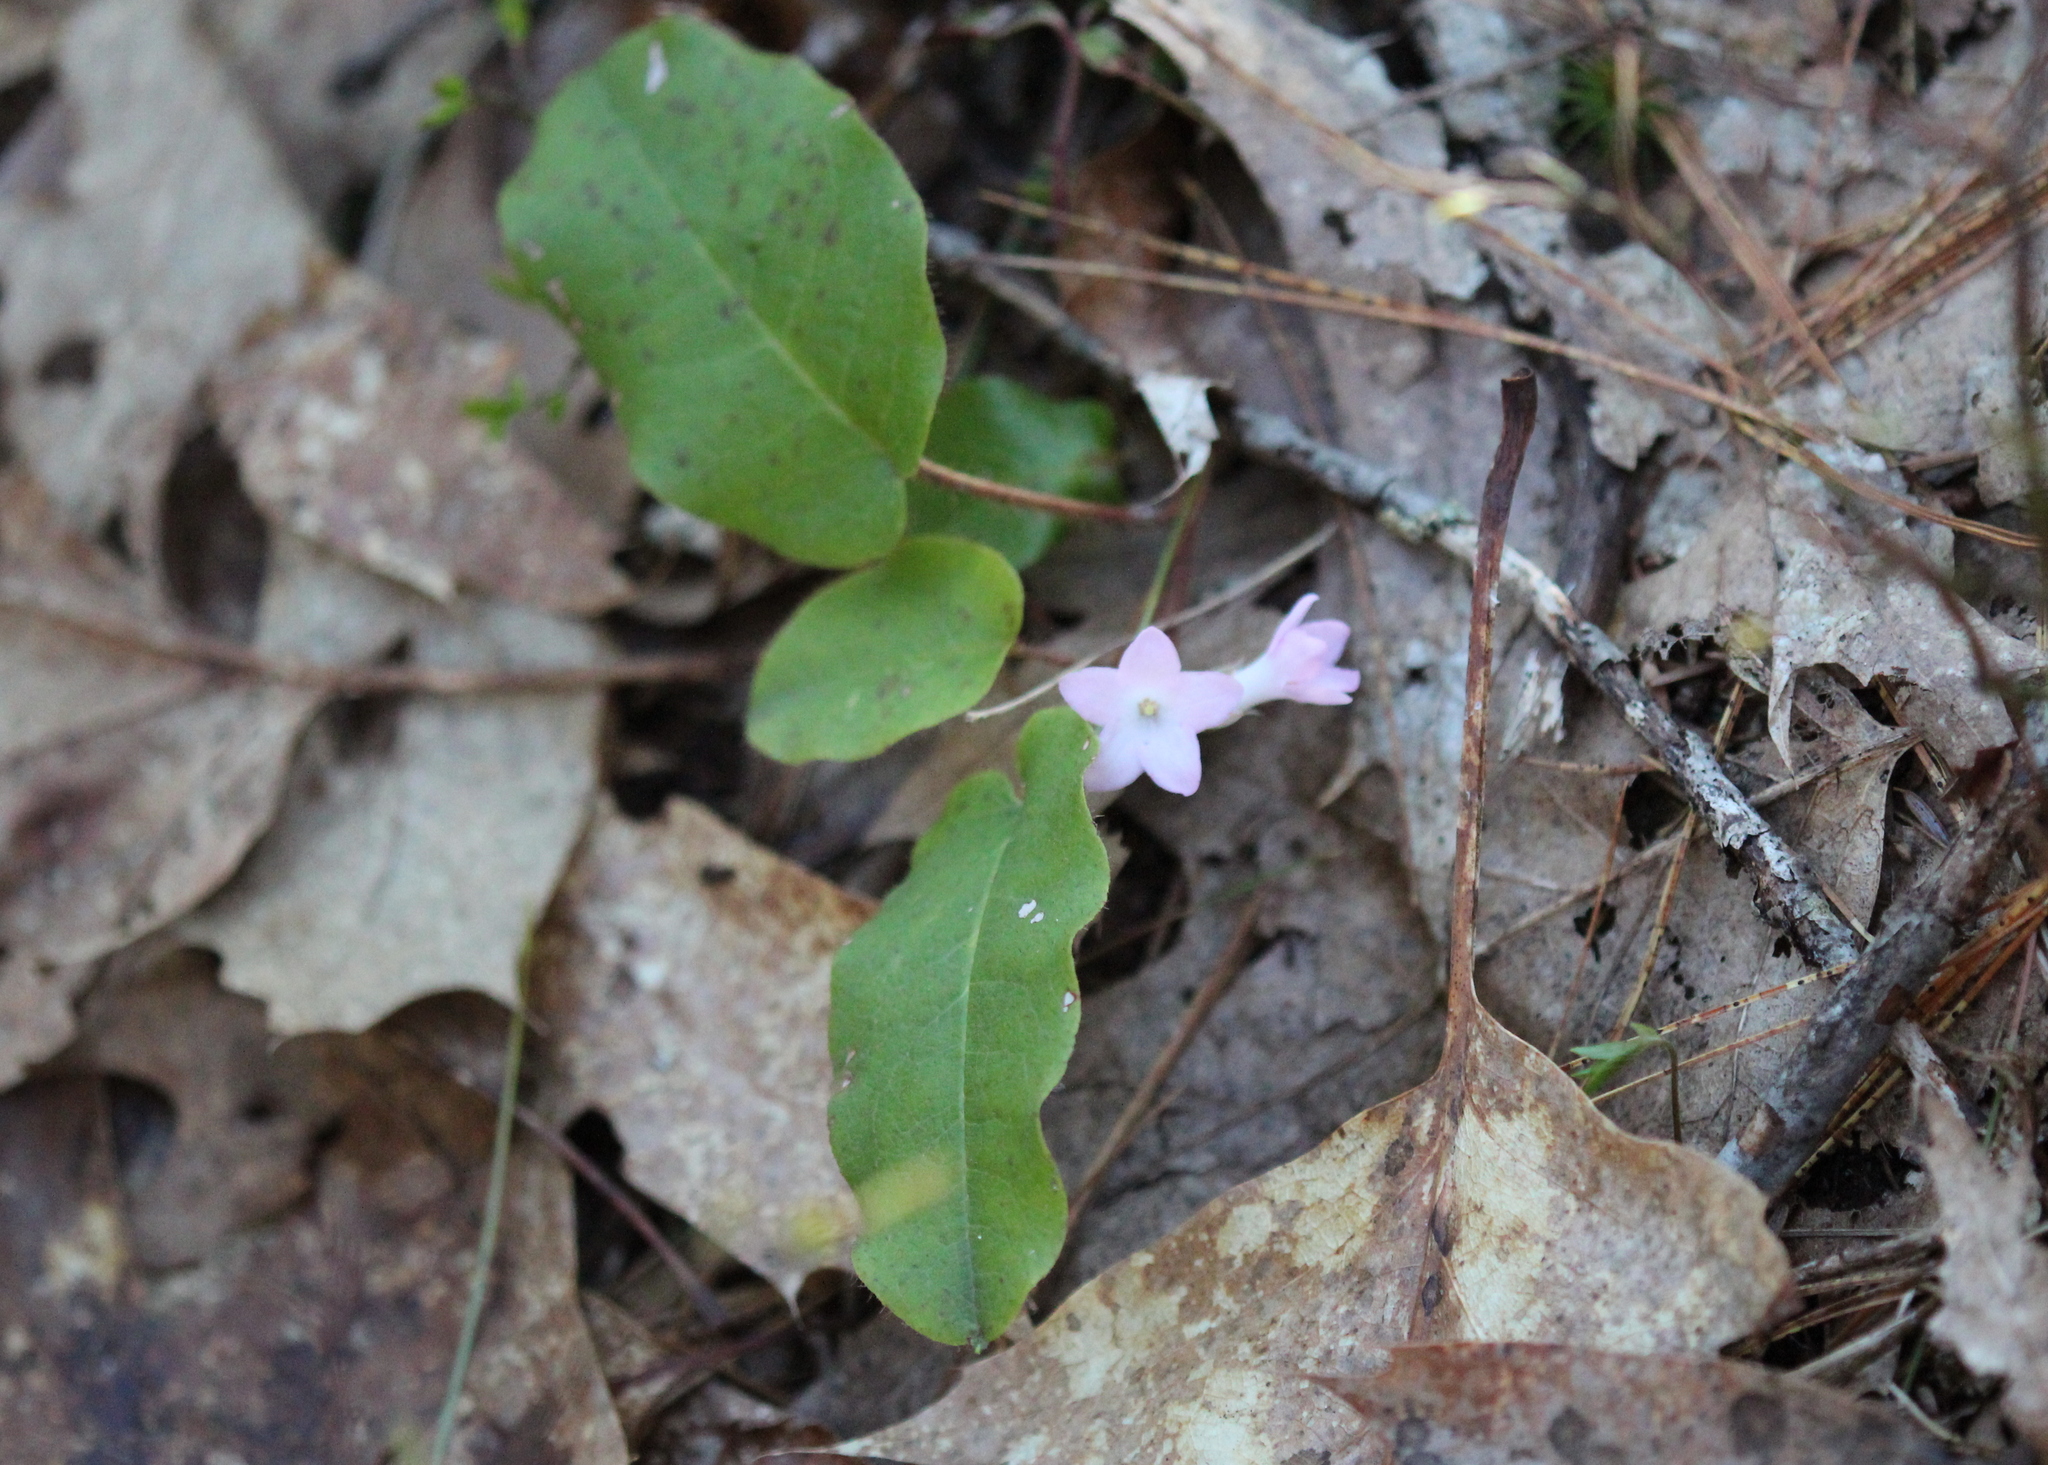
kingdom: Plantae
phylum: Tracheophyta
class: Magnoliopsida
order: Ericales
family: Ericaceae
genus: Epigaea
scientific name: Epigaea repens
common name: Gravelroot
